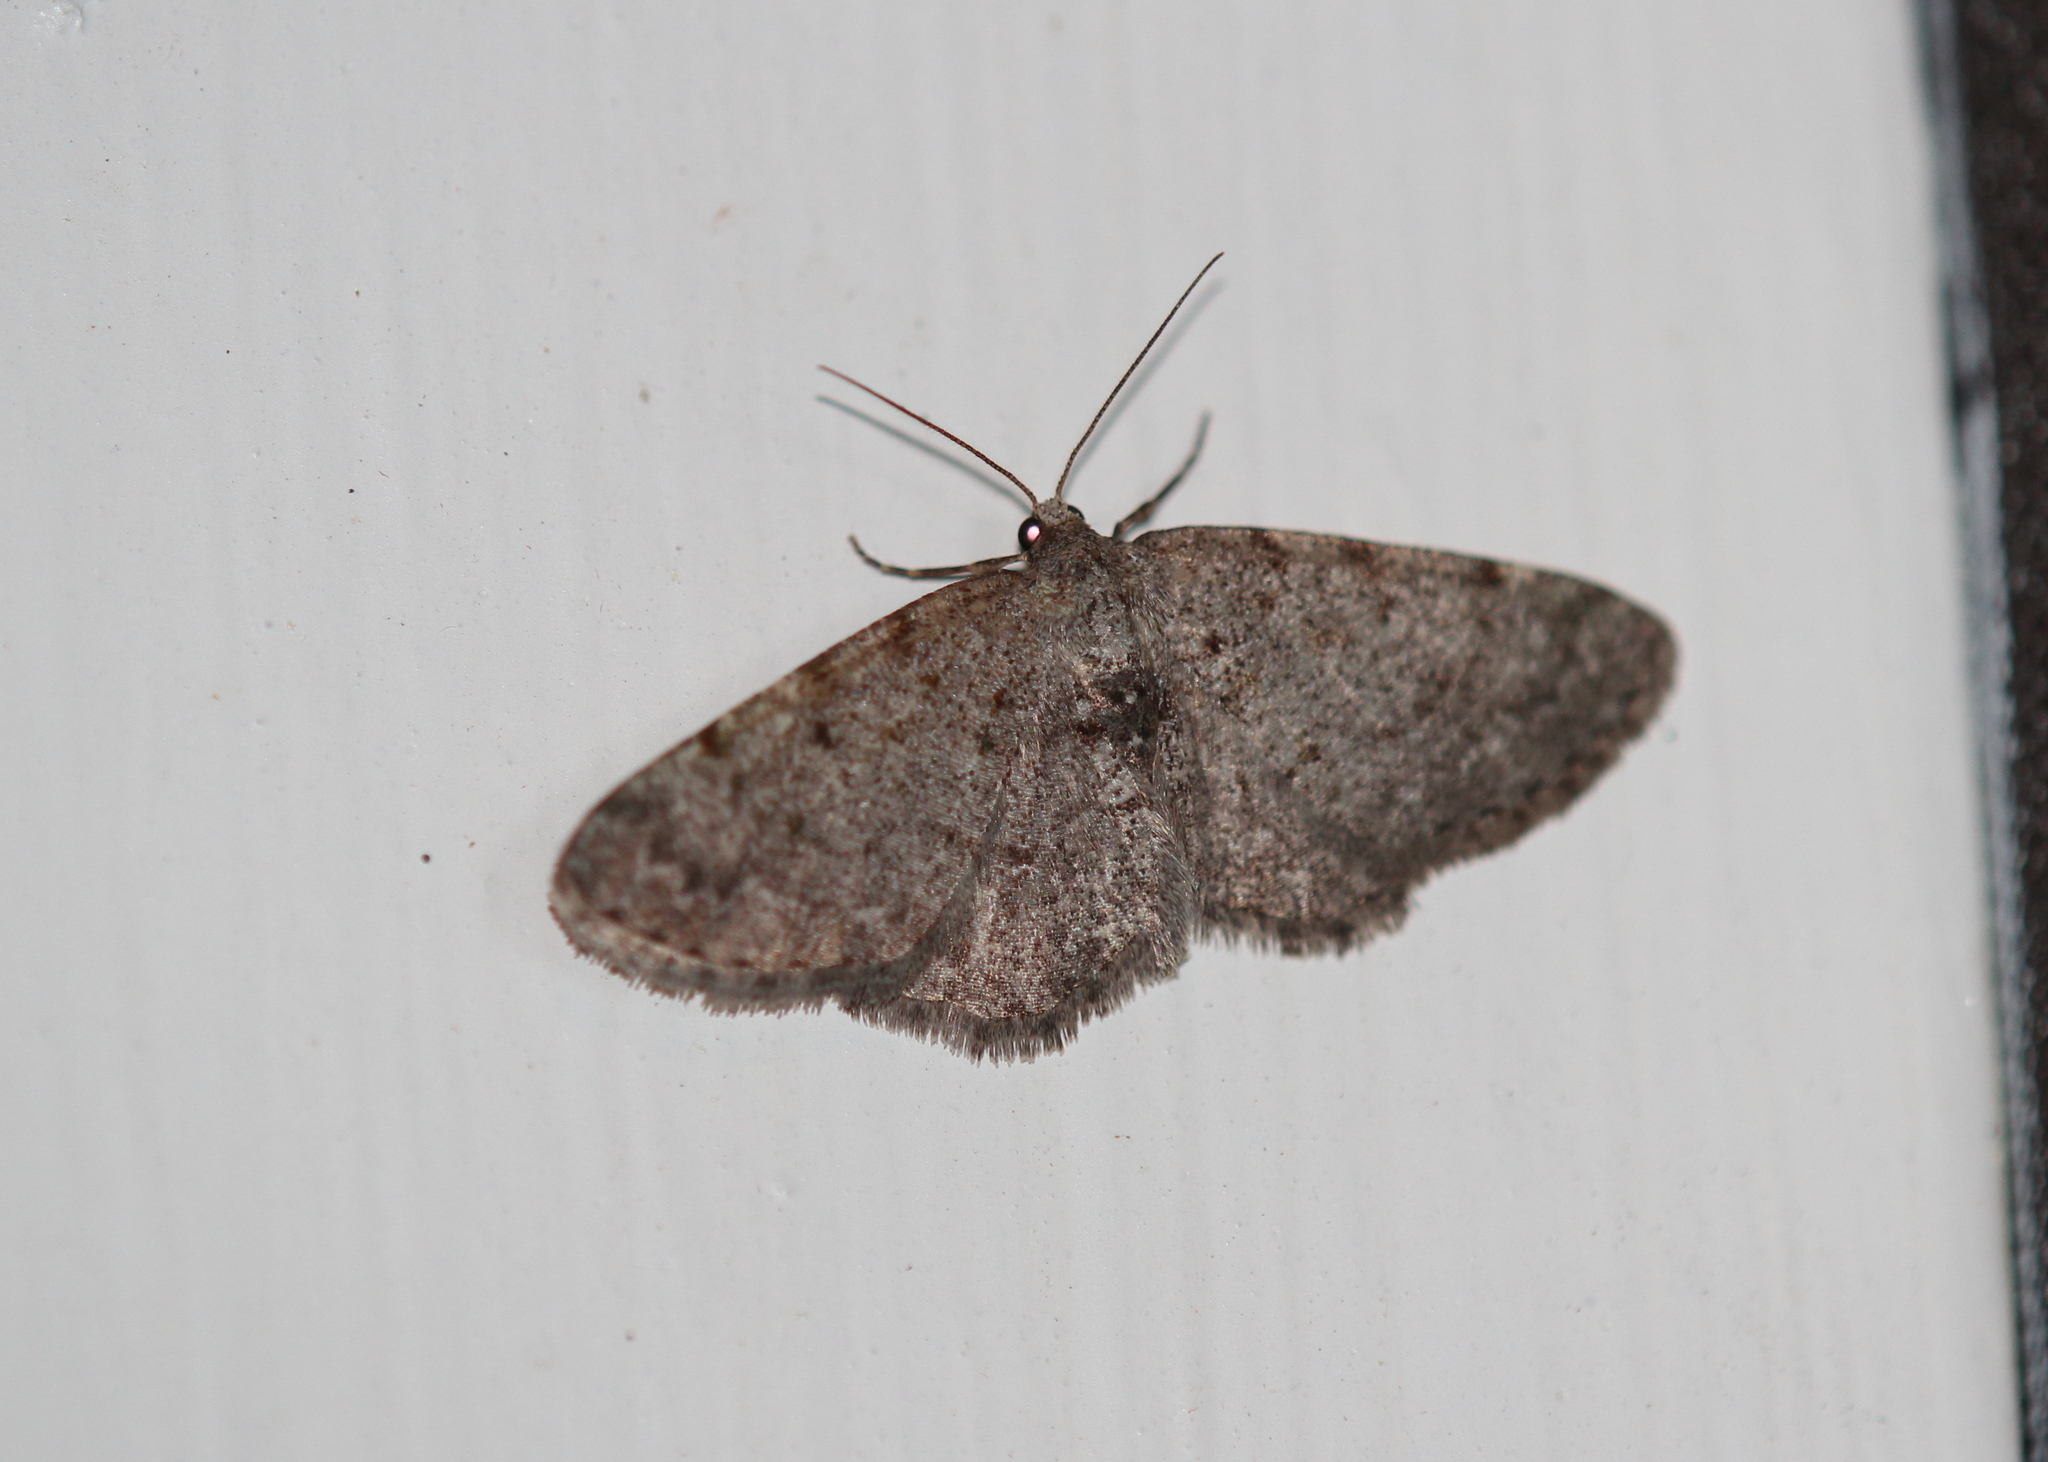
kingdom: Animalia
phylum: Arthropoda
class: Insecta
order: Lepidoptera
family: Geometridae
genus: Aethalura
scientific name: Aethalura intertexta
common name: Four-barred gray
